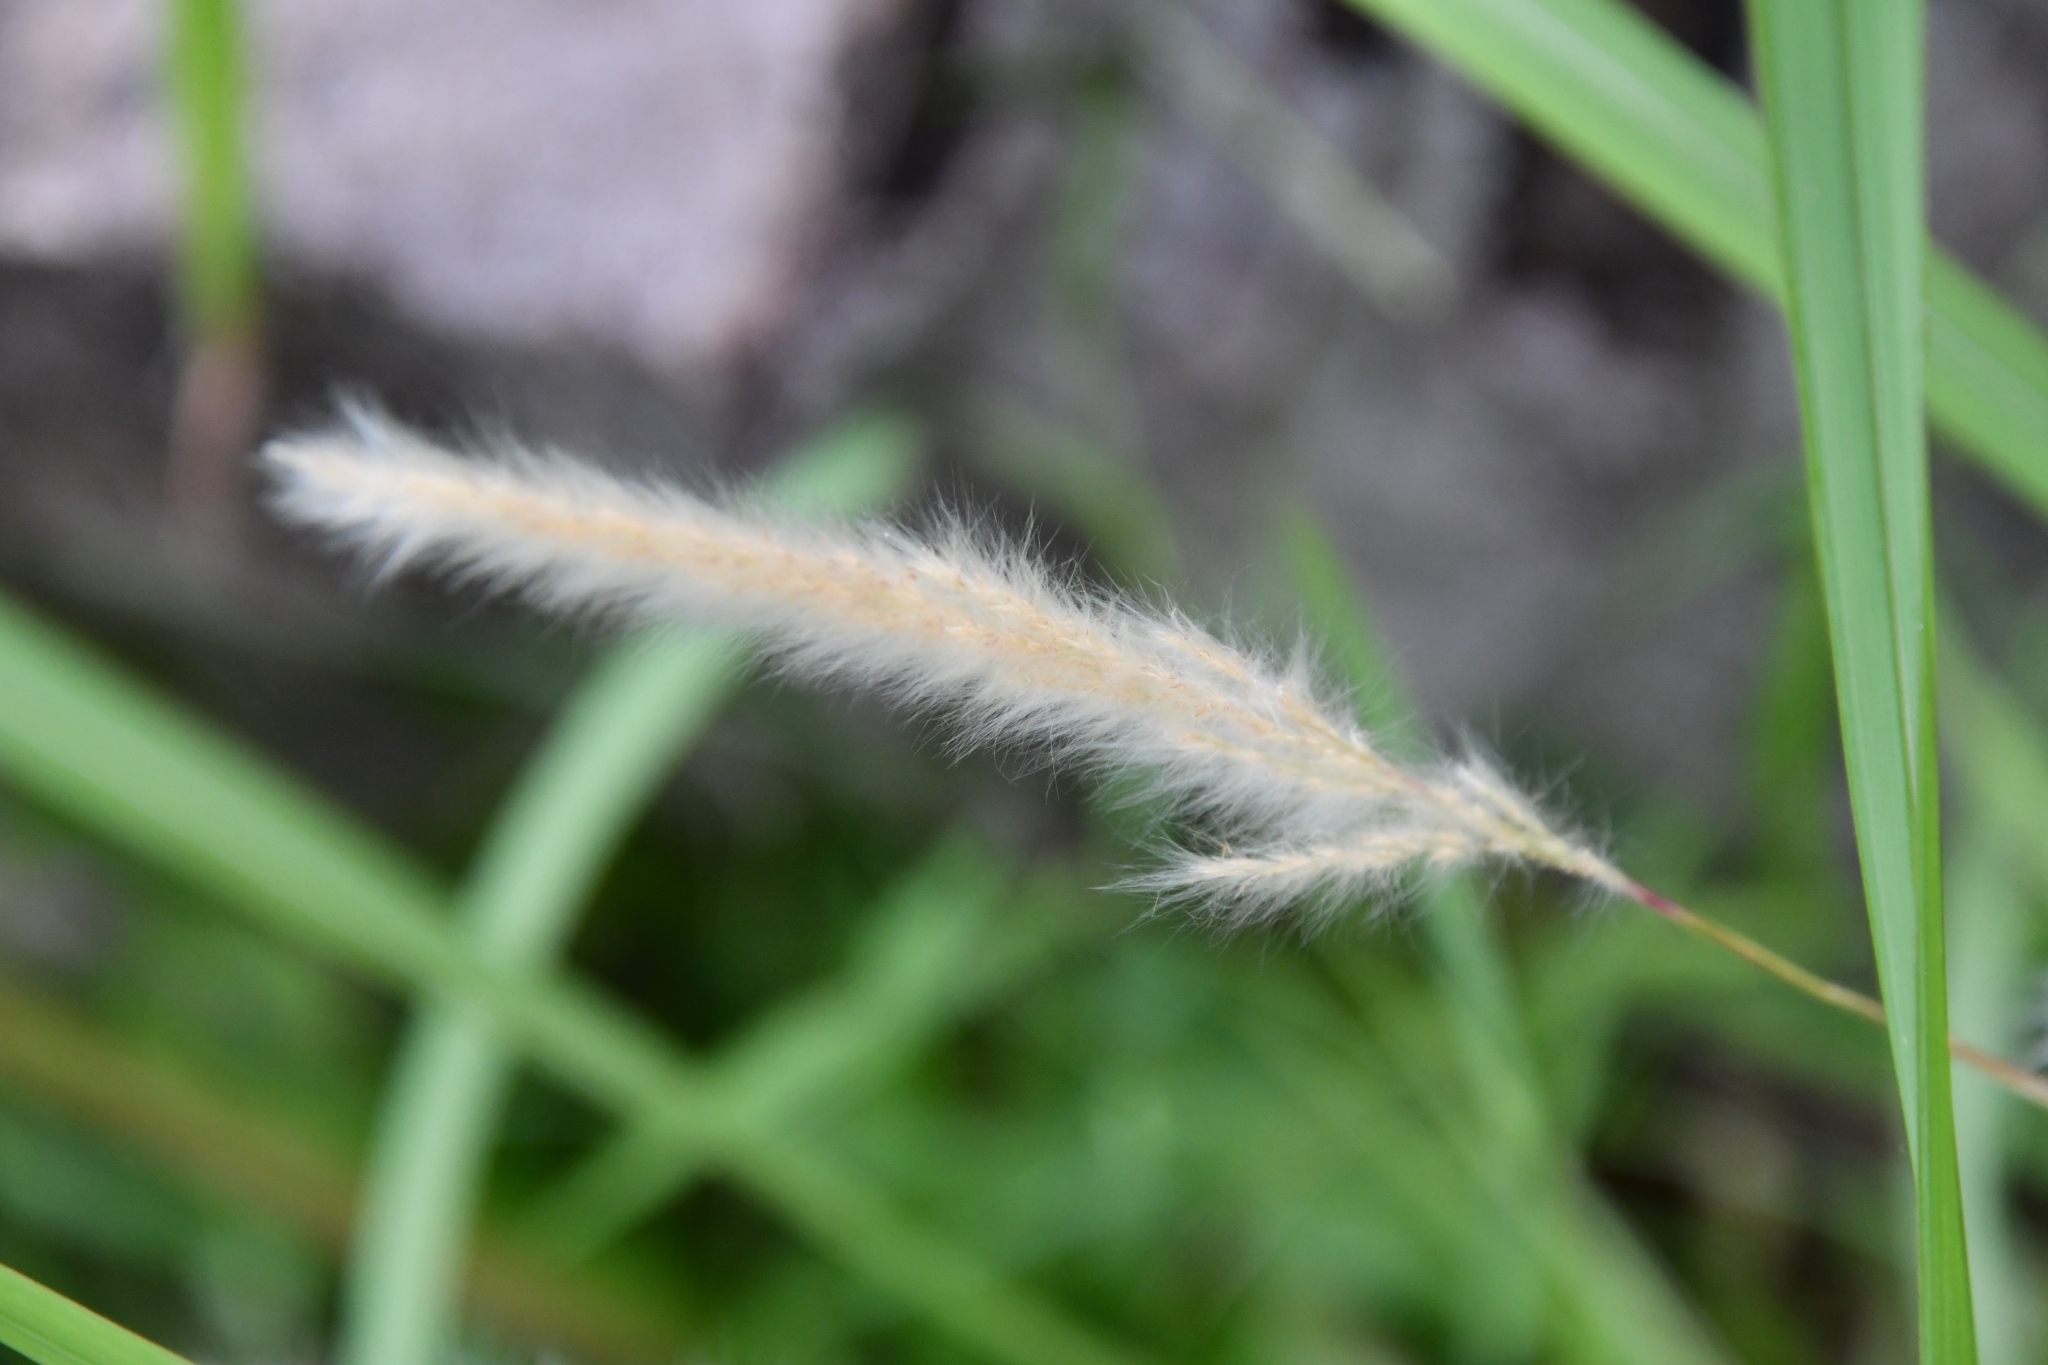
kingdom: Plantae
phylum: Tracheophyta
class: Liliopsida
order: Poales
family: Poaceae
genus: Imperata
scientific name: Imperata cylindrica
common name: Cogongrass
